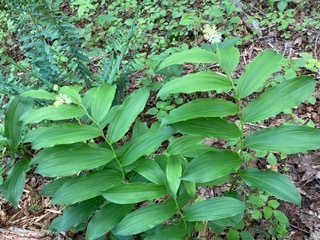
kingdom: Plantae
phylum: Tracheophyta
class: Liliopsida
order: Asparagales
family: Asparagaceae
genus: Maianthemum
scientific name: Maianthemum racemosum
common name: False spikenard
